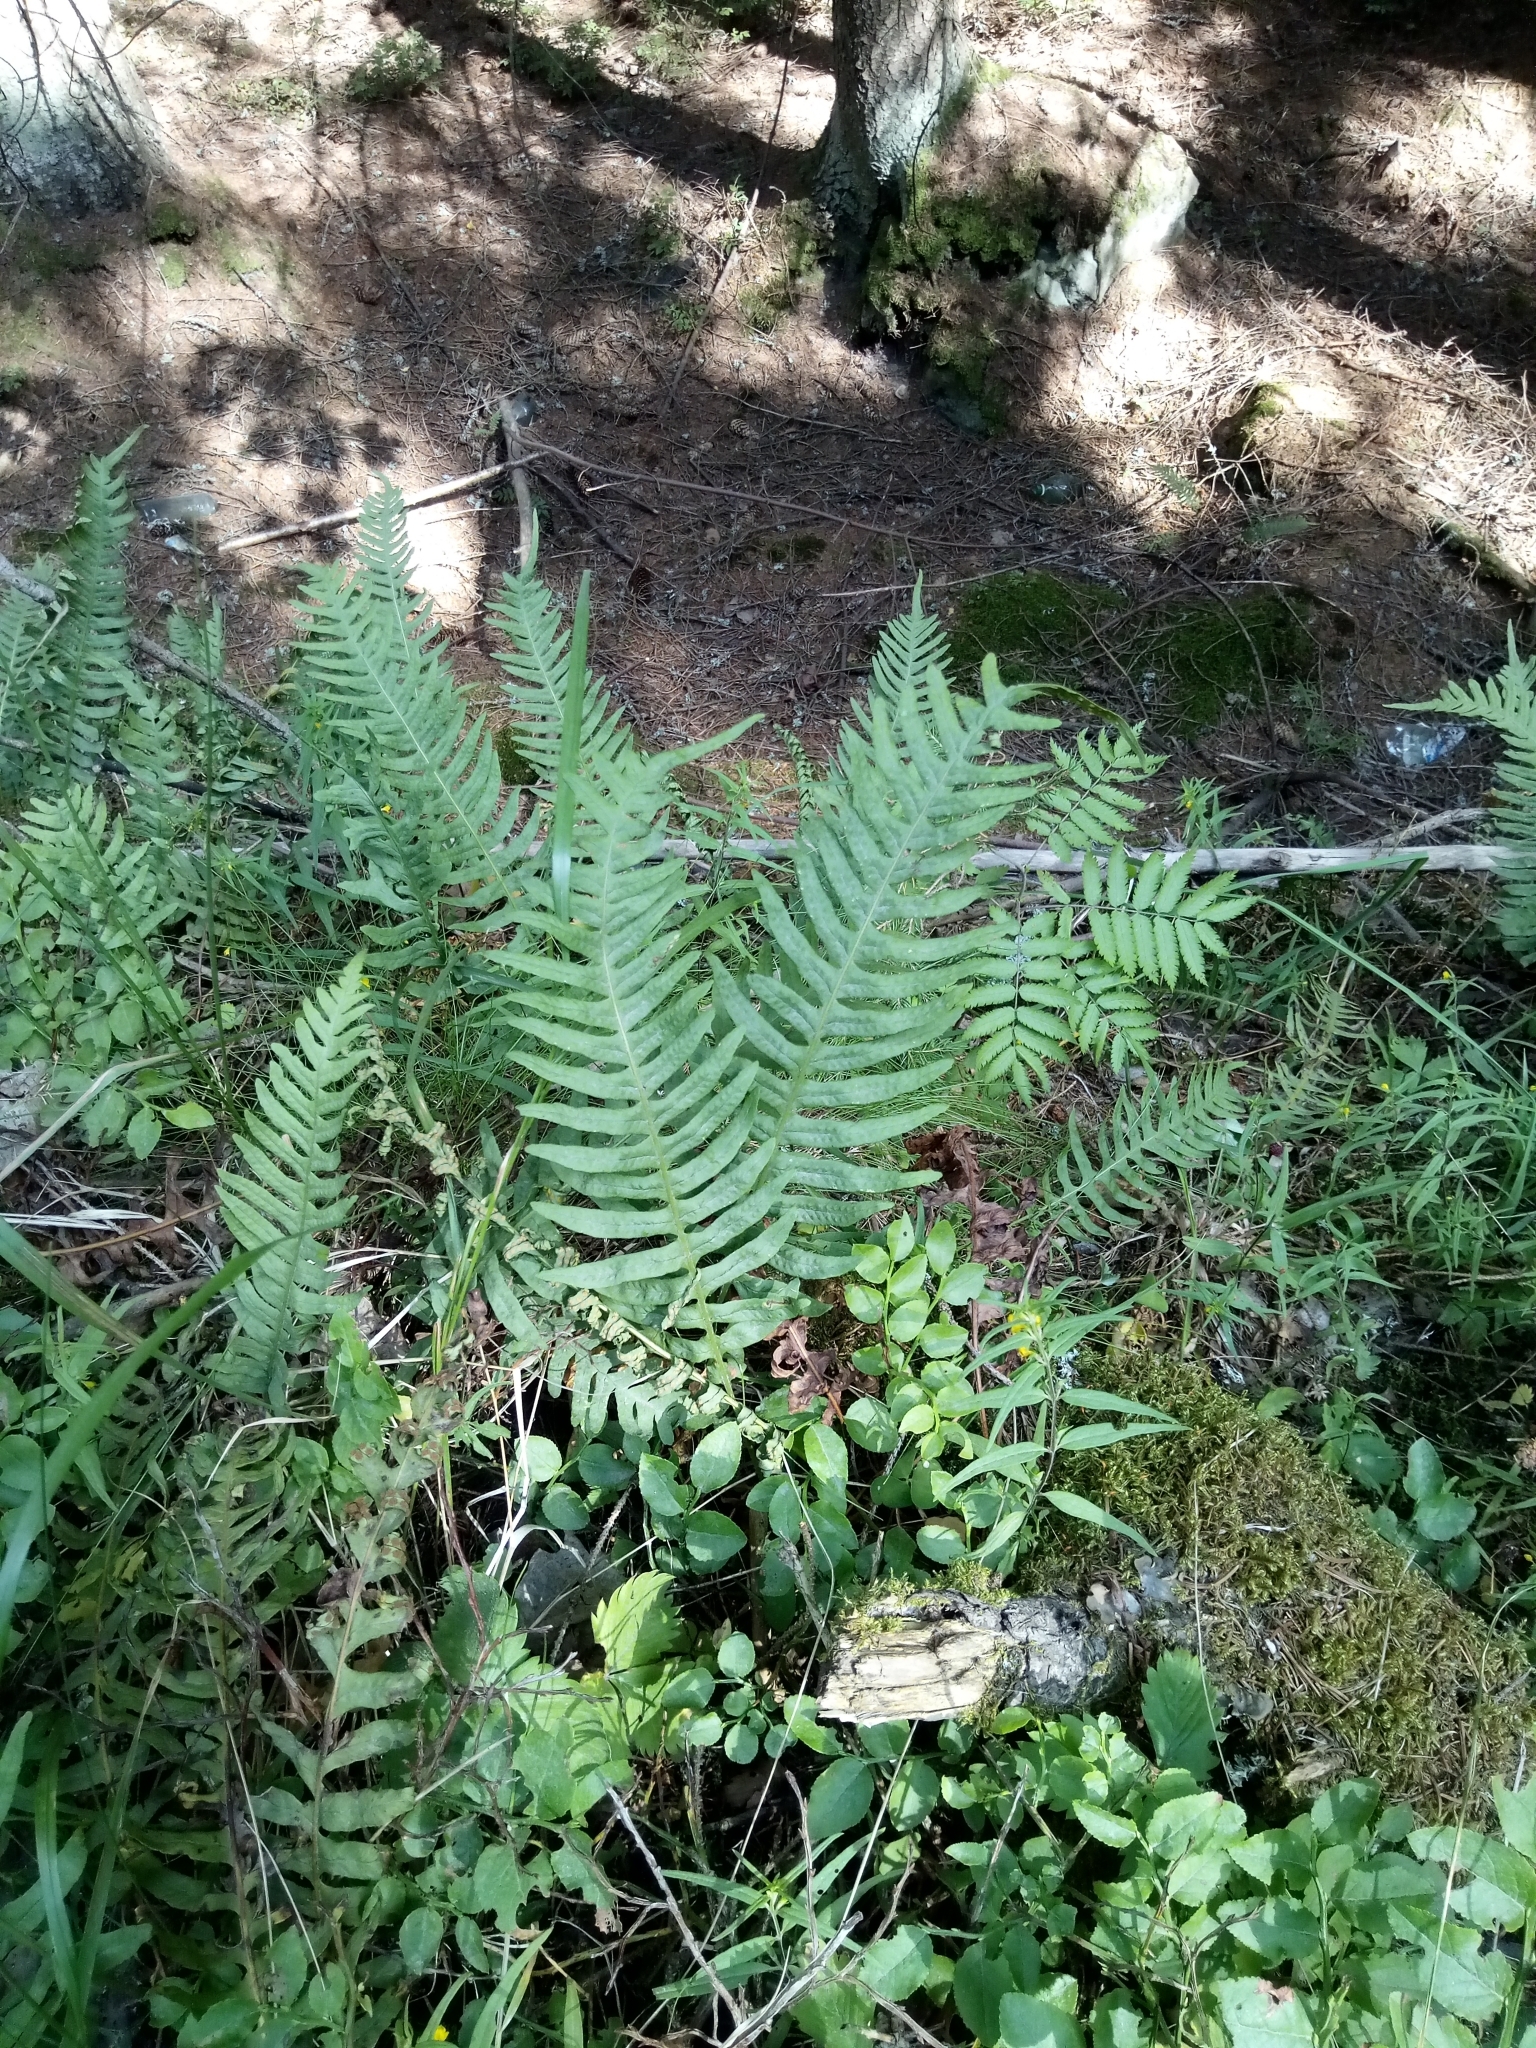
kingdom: Plantae
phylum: Tracheophyta
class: Polypodiopsida
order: Polypodiales
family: Polypodiaceae
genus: Polypodium
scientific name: Polypodium vulgare
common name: Common polypody
